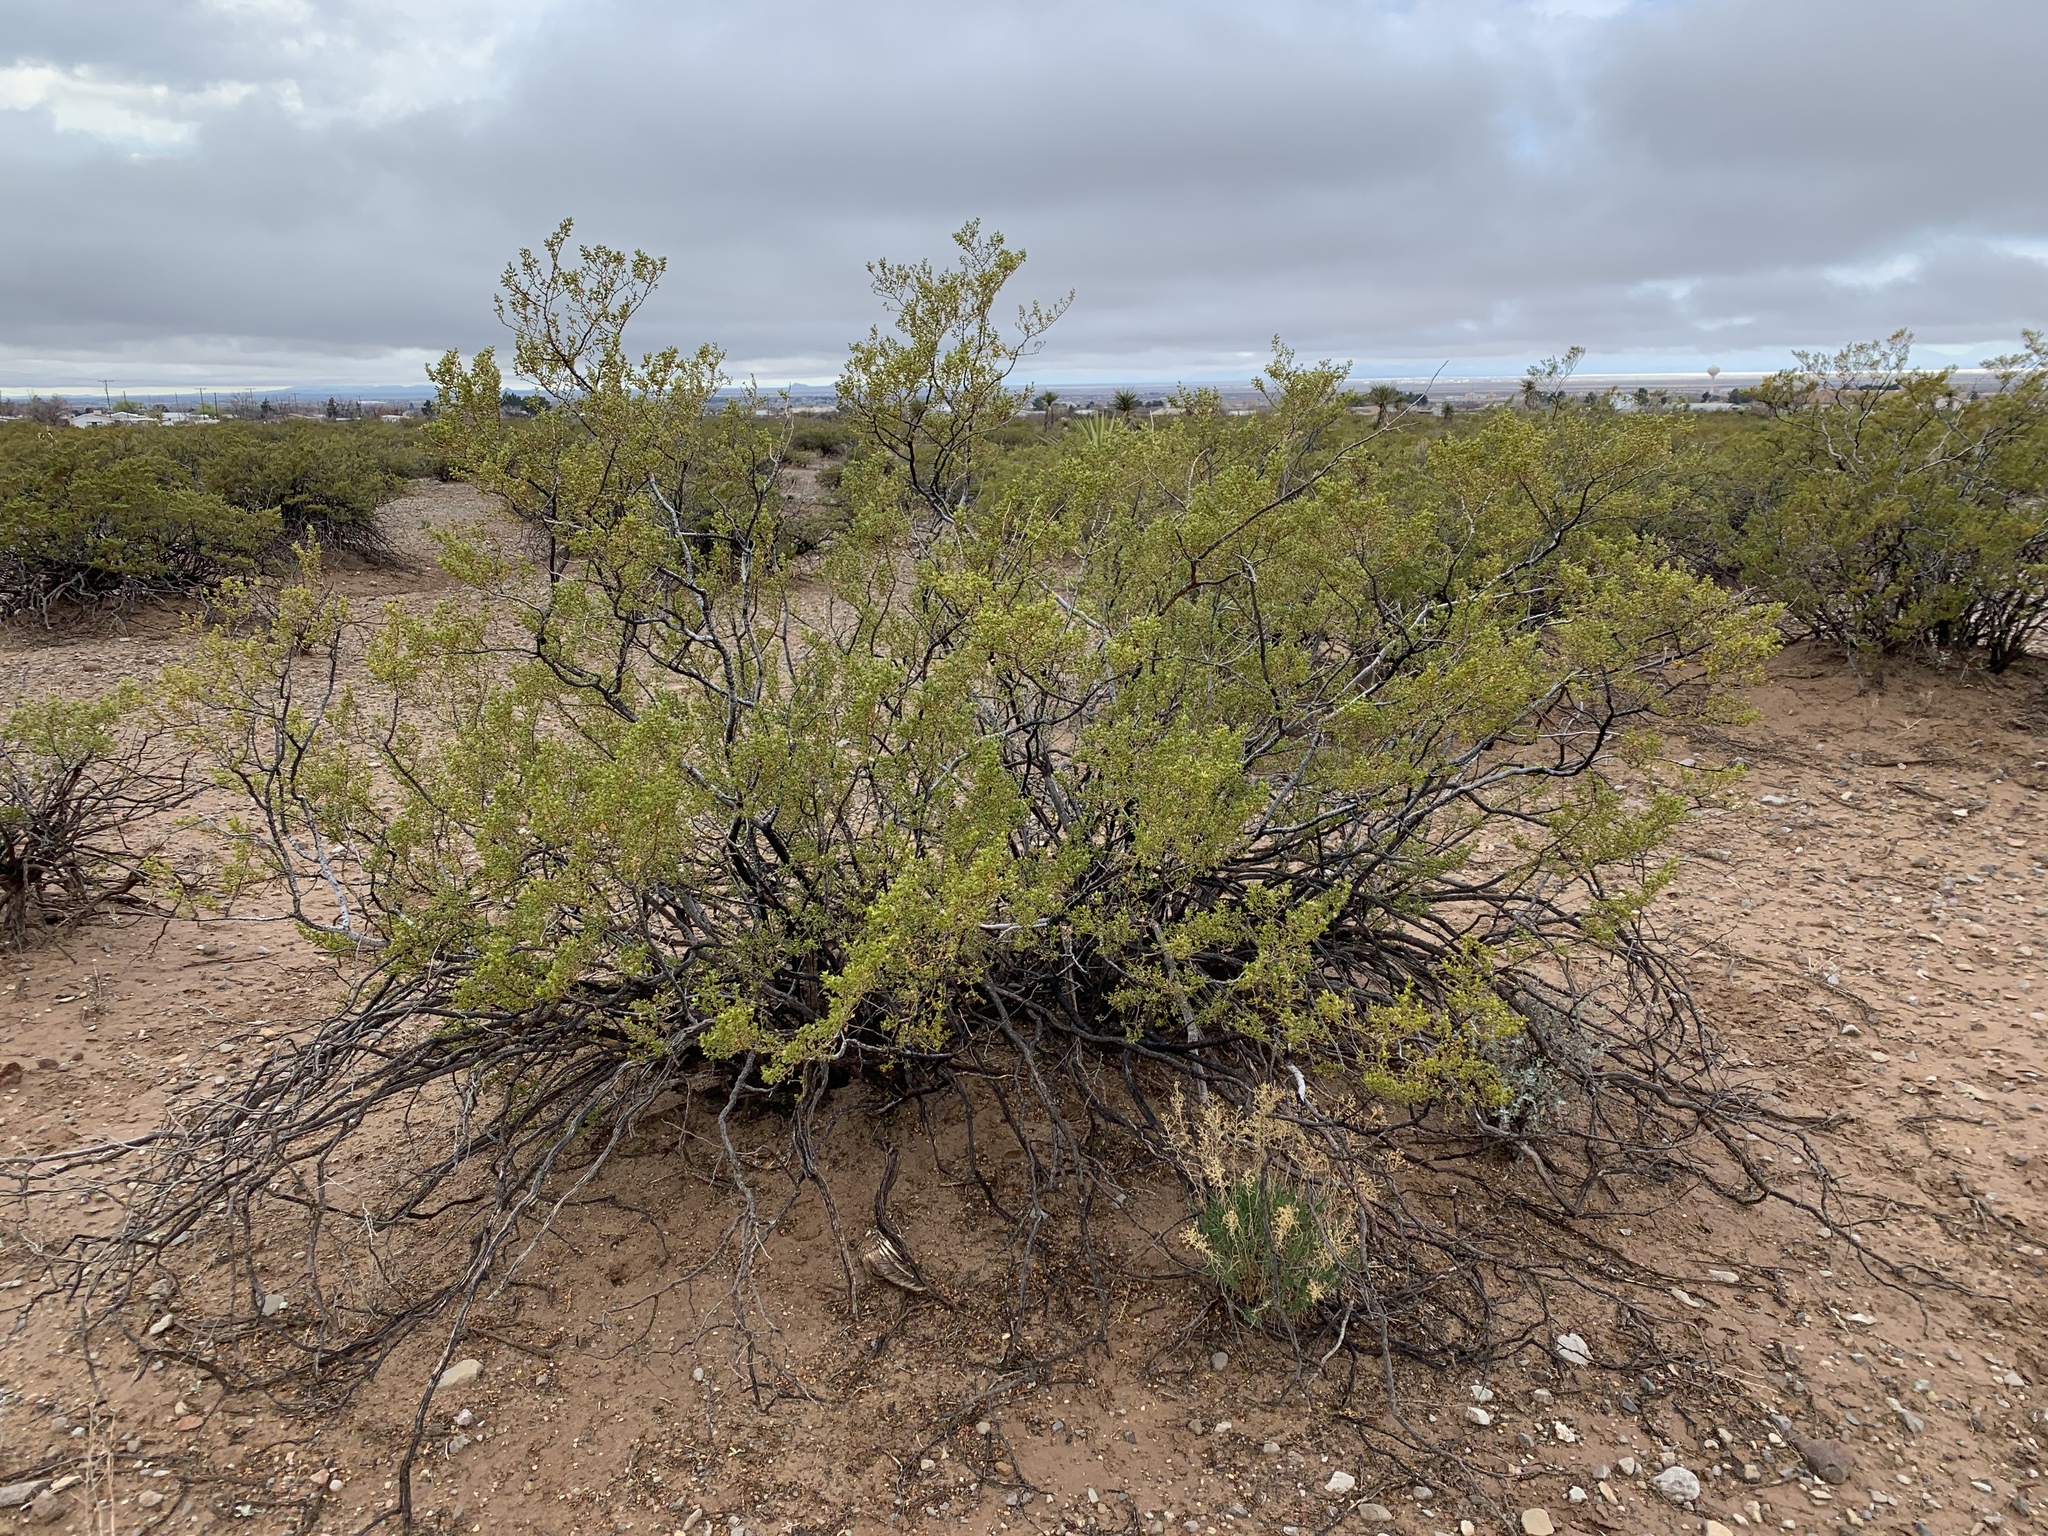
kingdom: Plantae
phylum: Tracheophyta
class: Magnoliopsida
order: Zygophyllales
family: Zygophyllaceae
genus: Larrea
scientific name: Larrea tridentata
